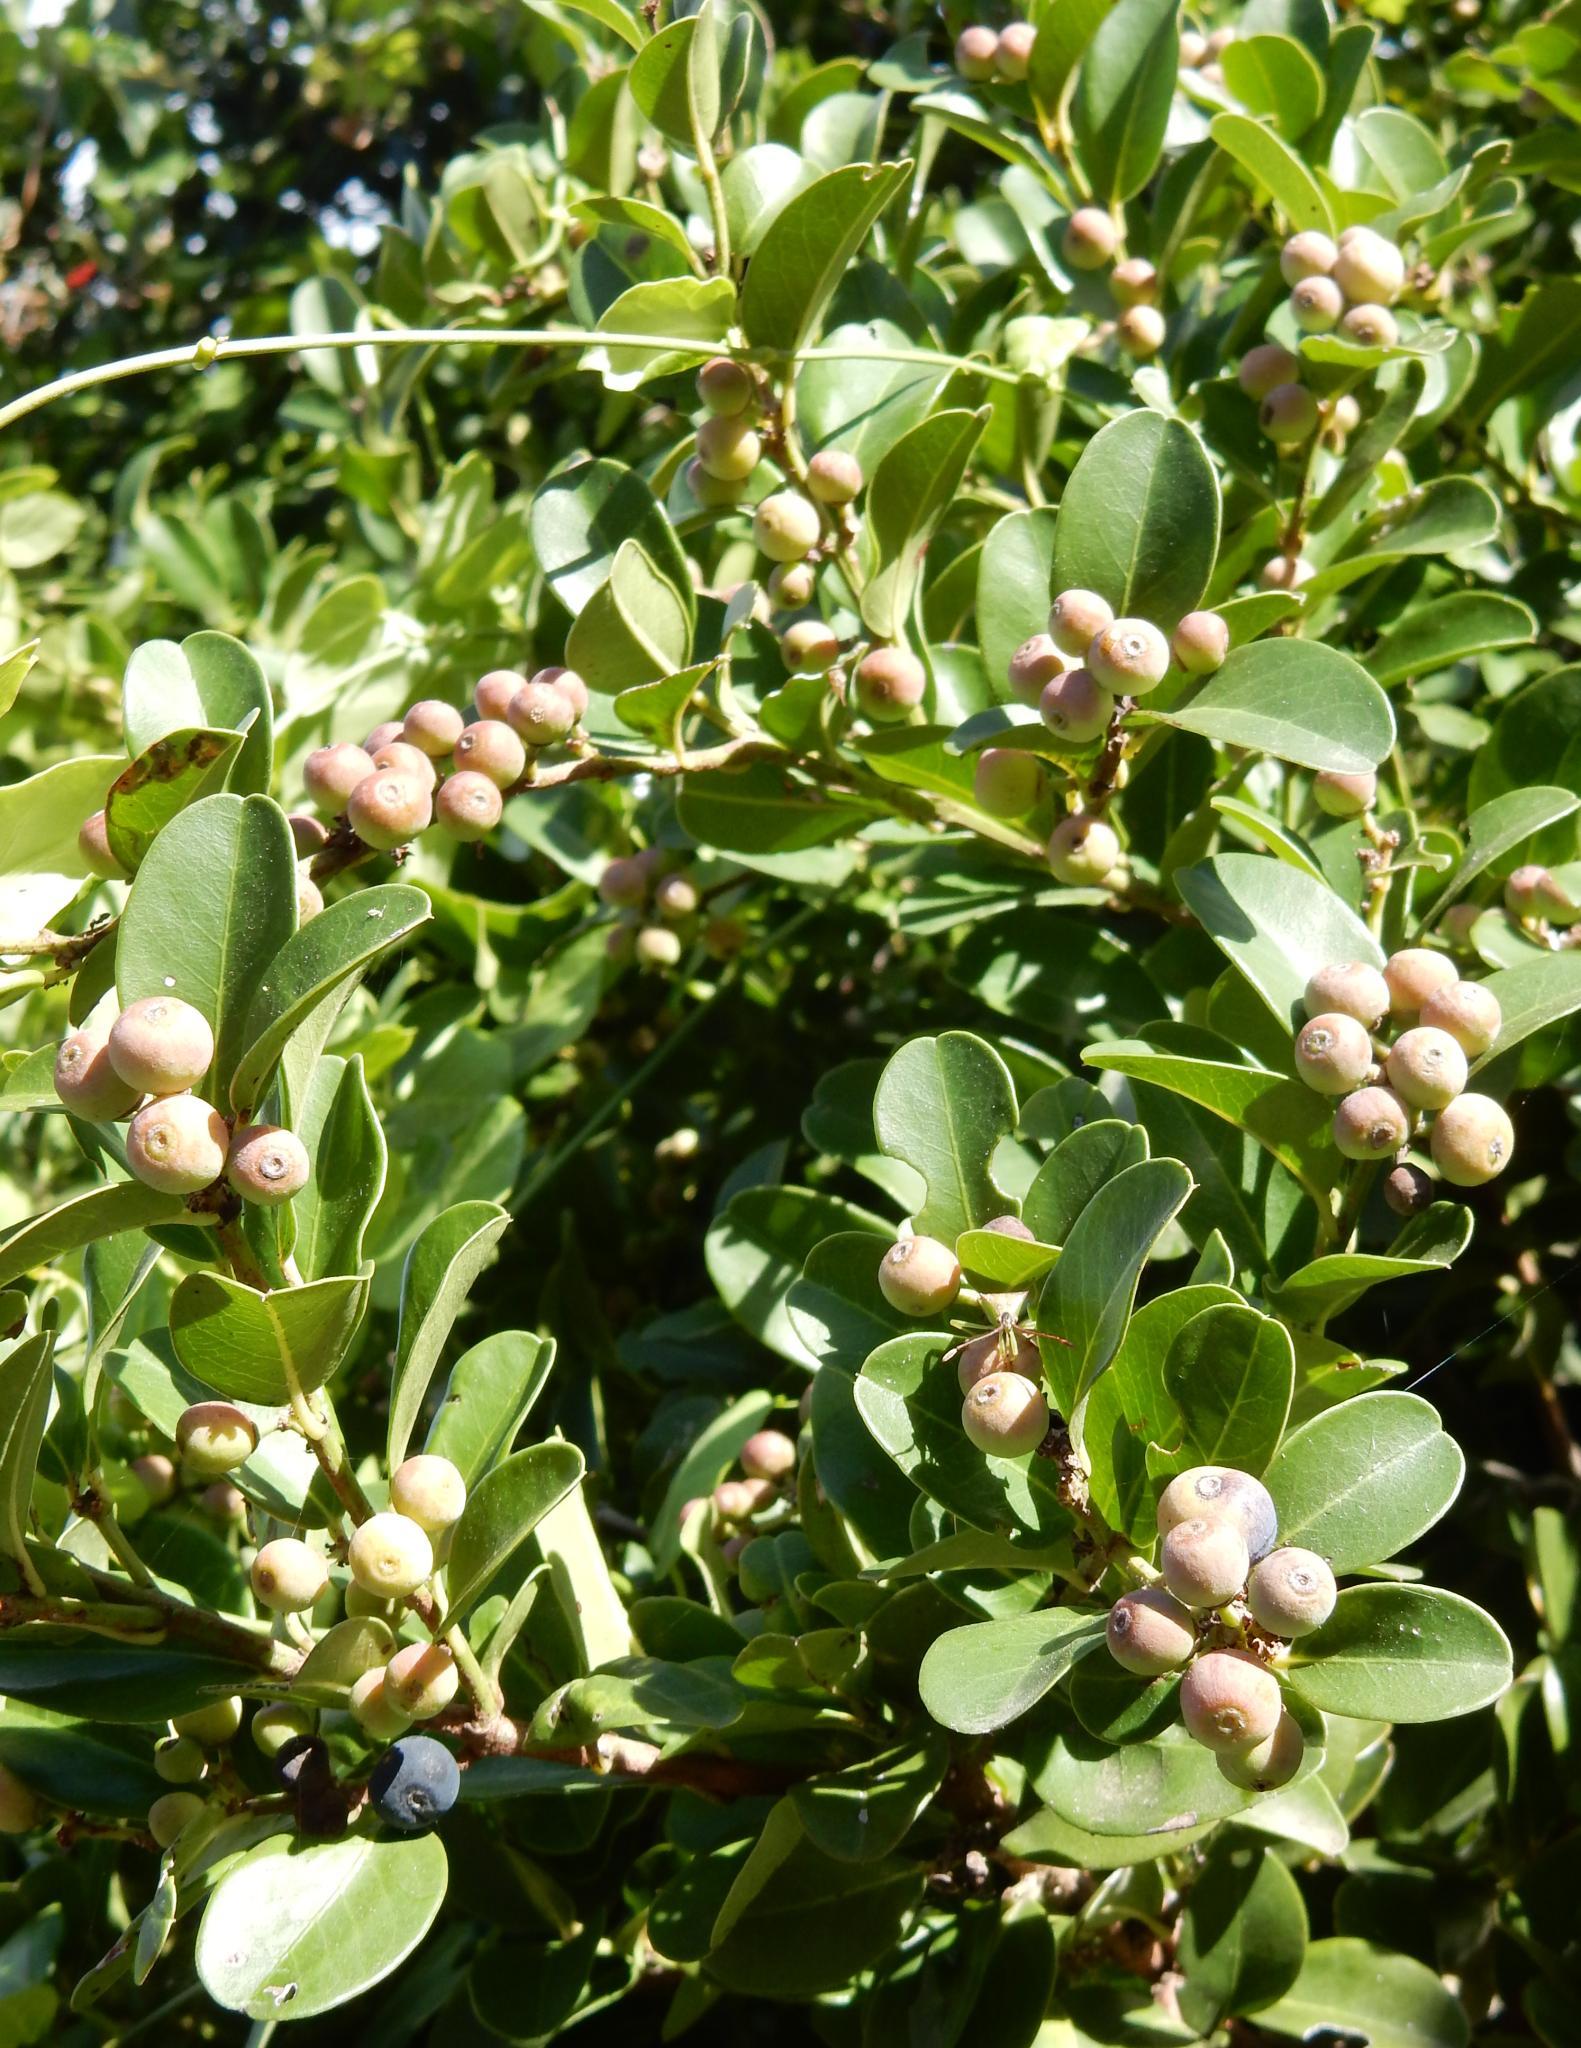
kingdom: Plantae
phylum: Tracheophyta
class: Magnoliopsida
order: Rosales
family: Rhamnaceae
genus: Scutia
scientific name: Scutia myrtina
